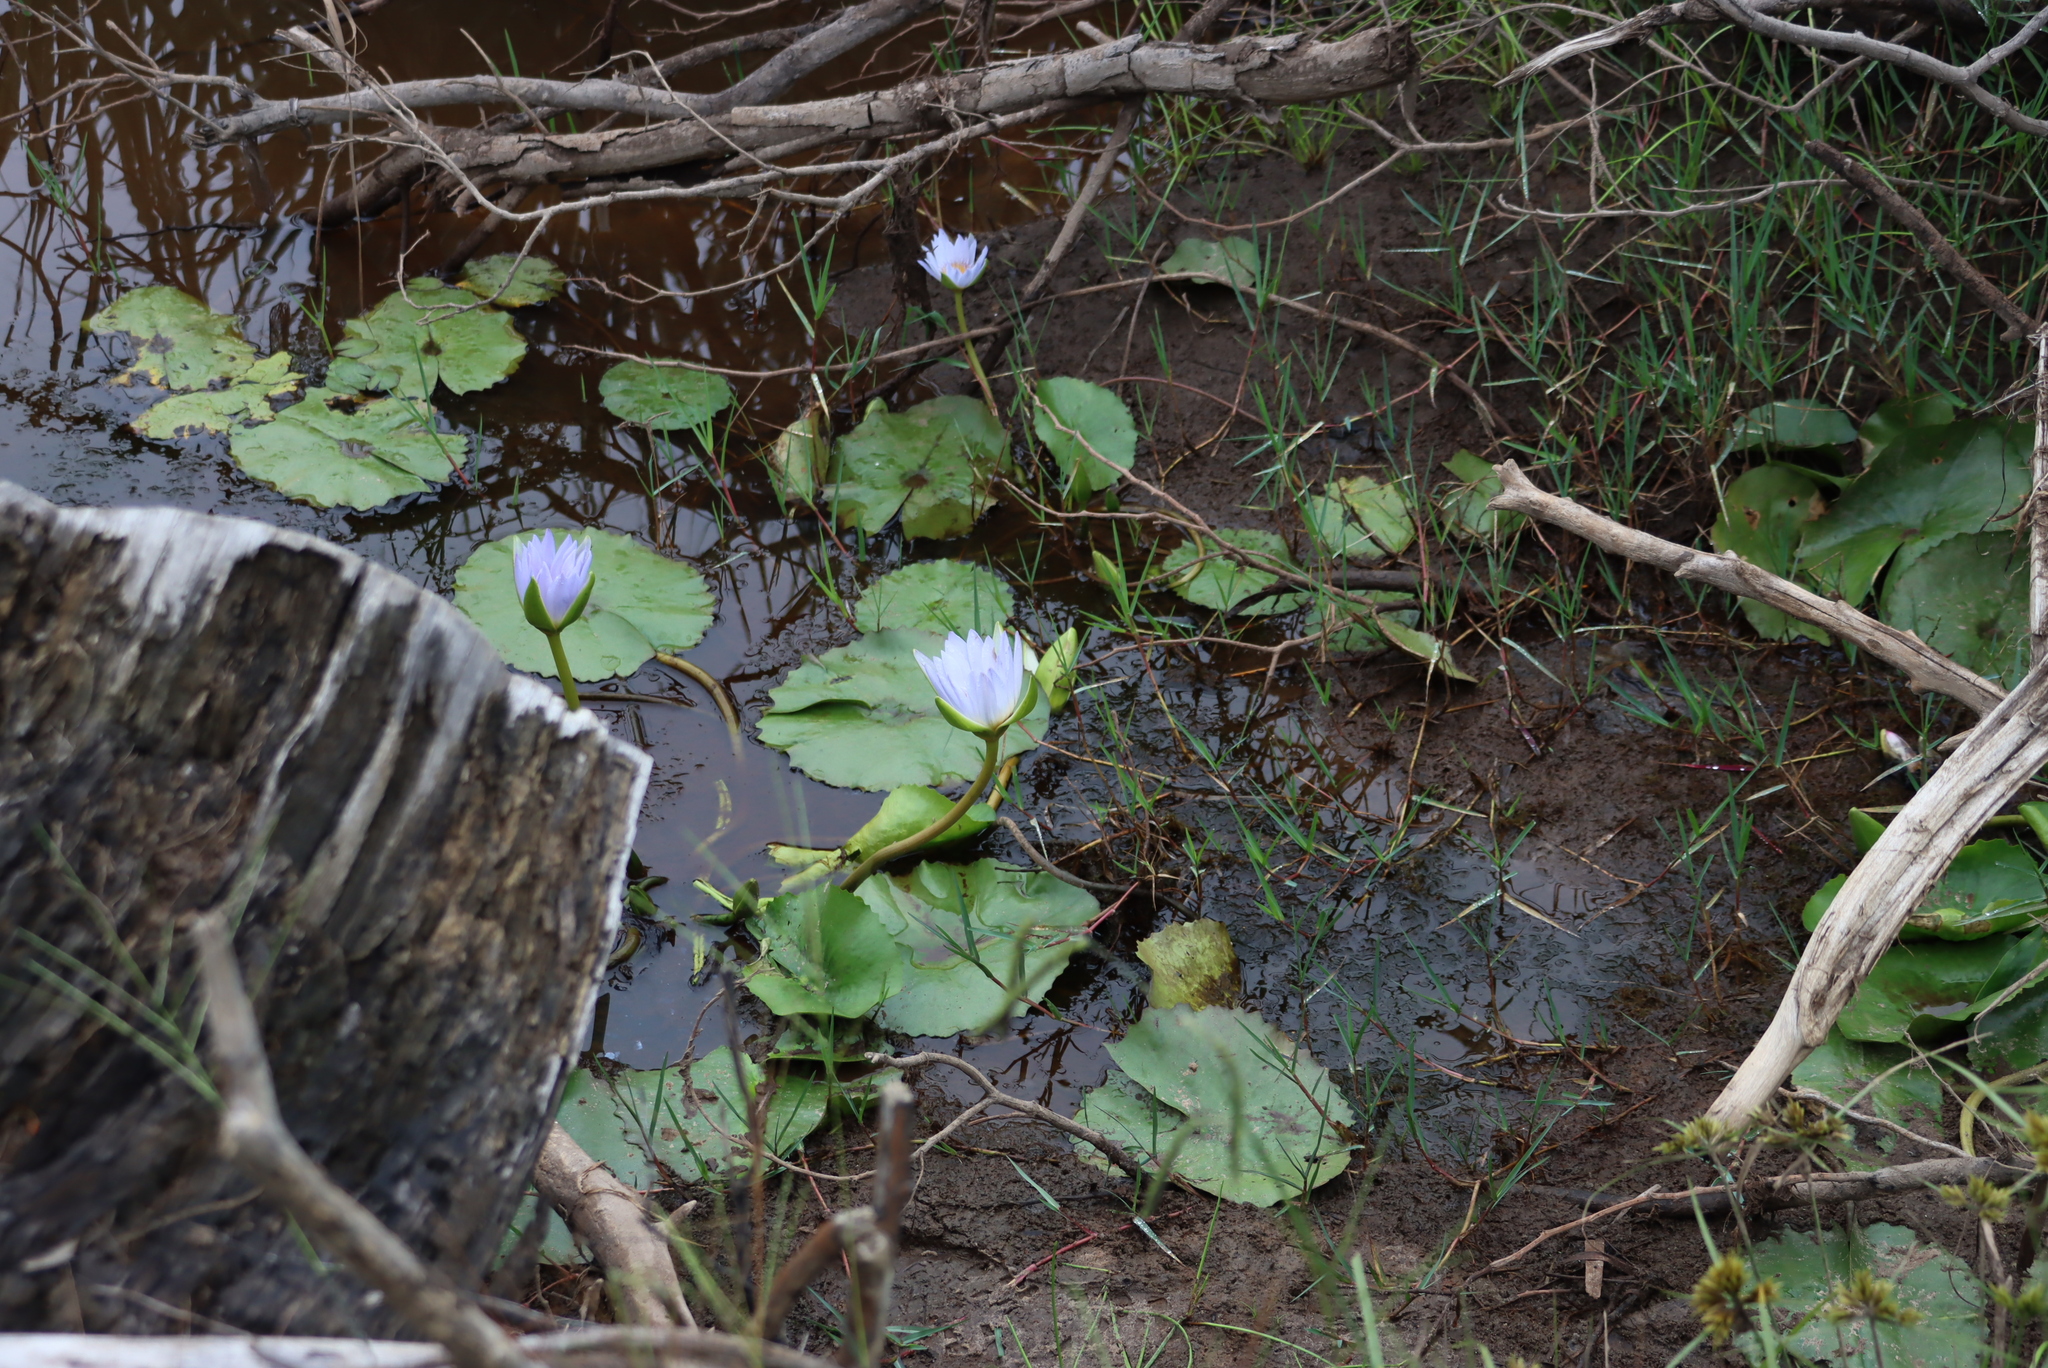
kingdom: Plantae
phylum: Tracheophyta
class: Magnoliopsida
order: Nymphaeales
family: Nymphaeaceae
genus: Nymphaea
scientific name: Nymphaea nouchali
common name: Blue lotus
